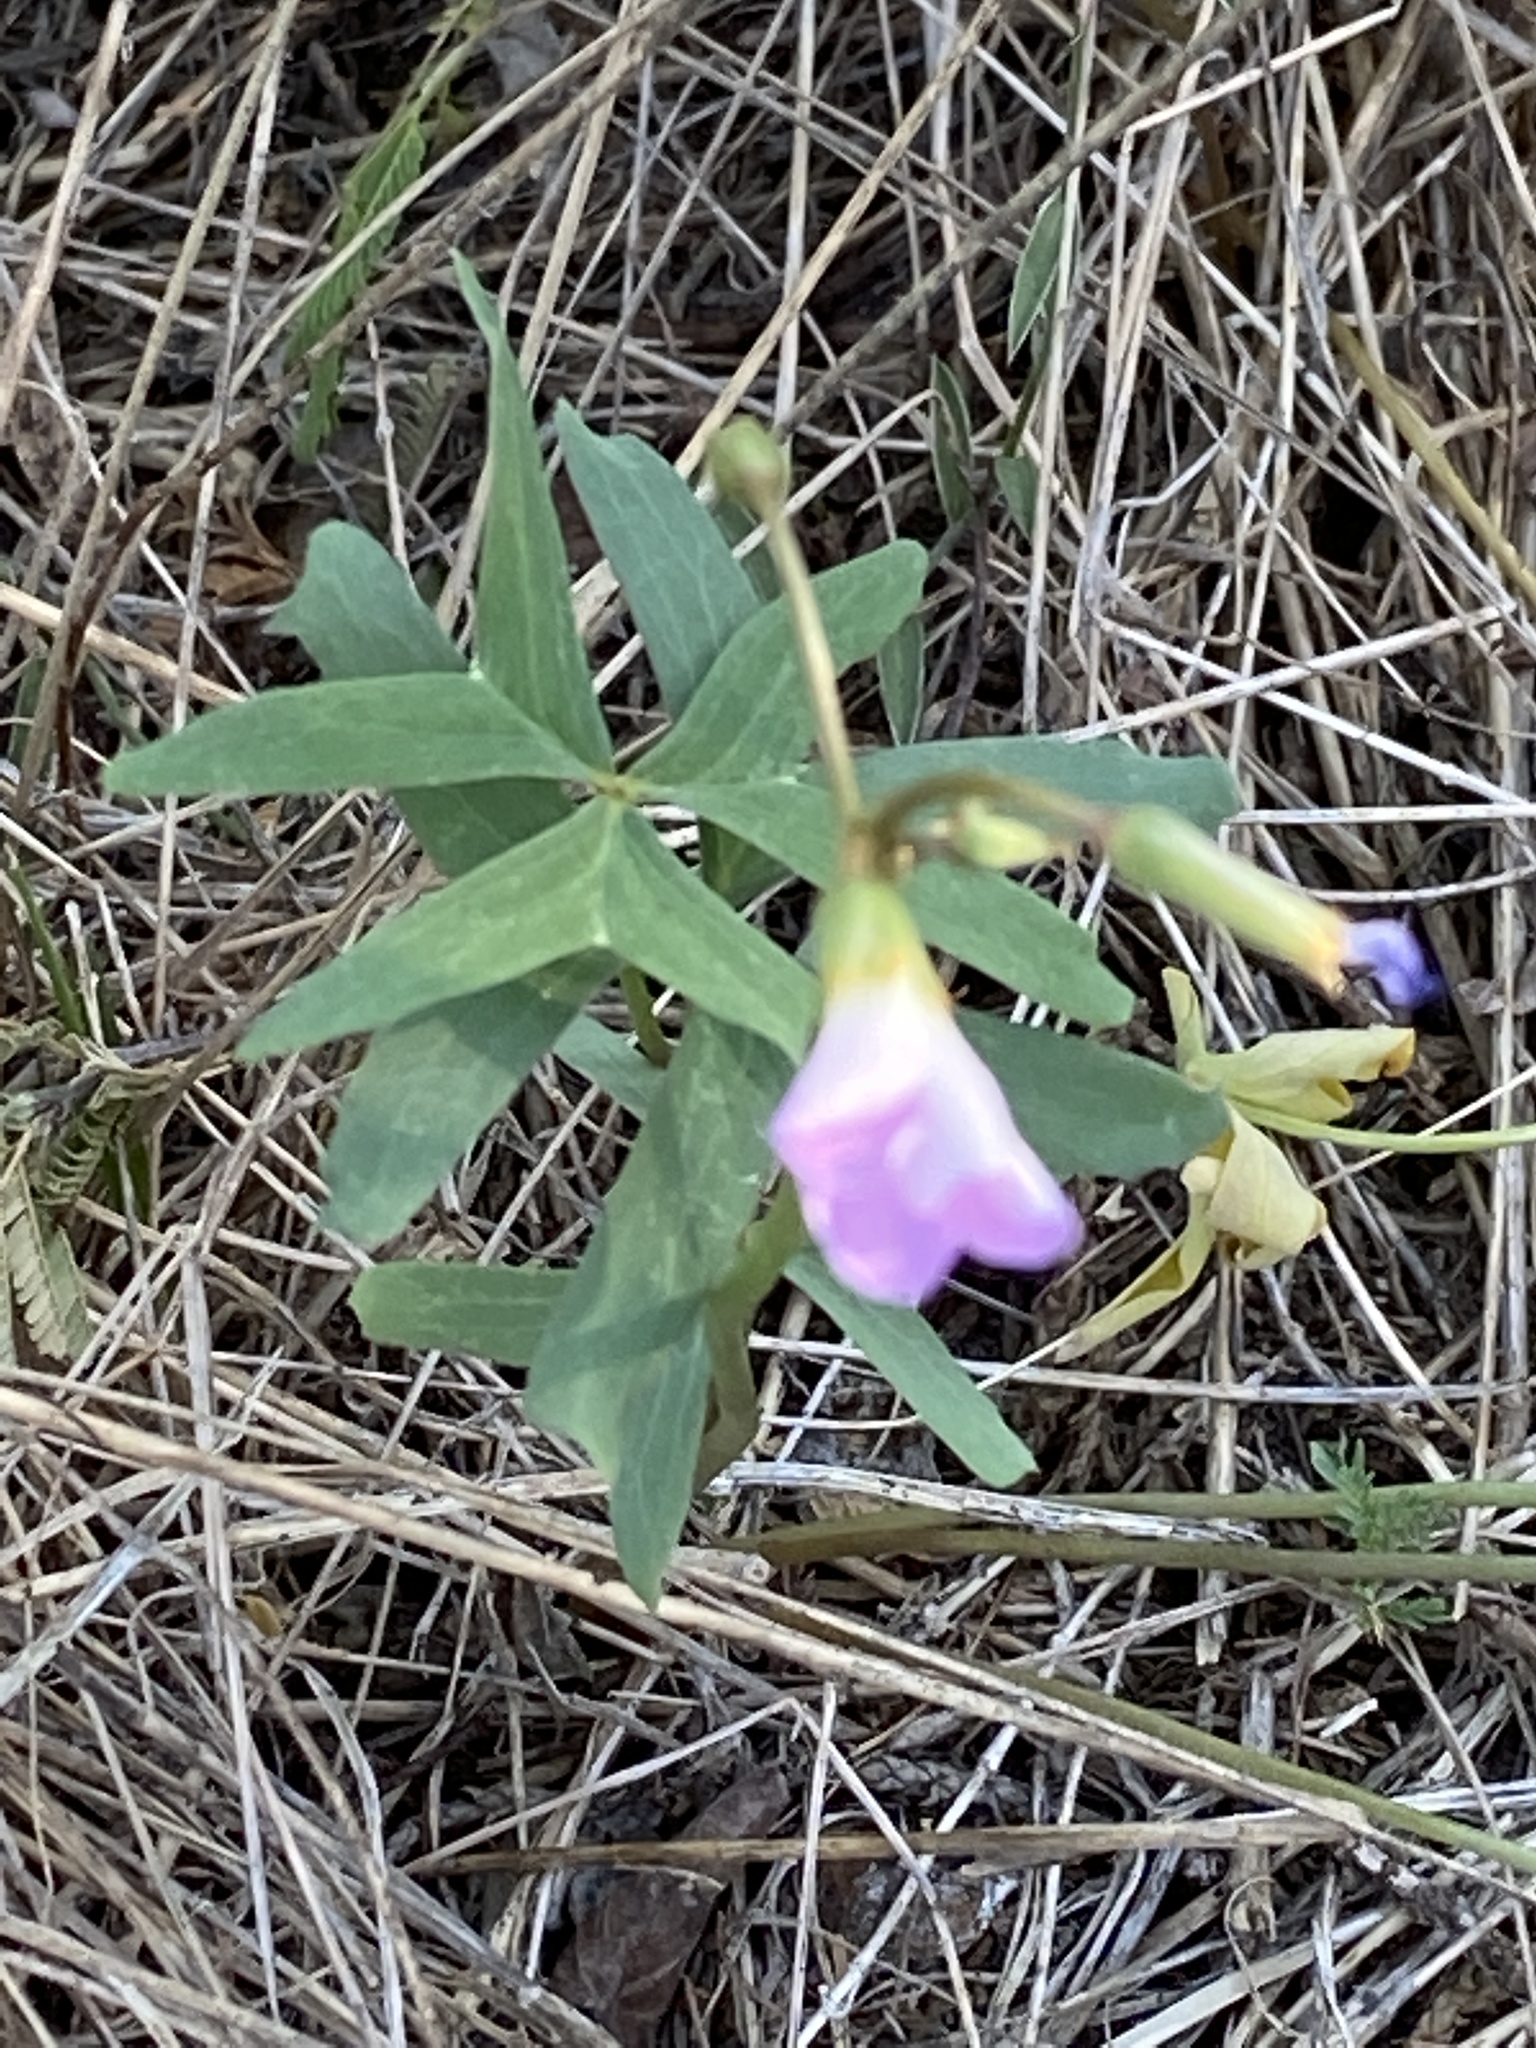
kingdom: Plantae
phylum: Tracheophyta
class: Magnoliopsida
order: Oxalidales
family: Oxalidaceae
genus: Oxalis
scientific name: Oxalis drummondii
